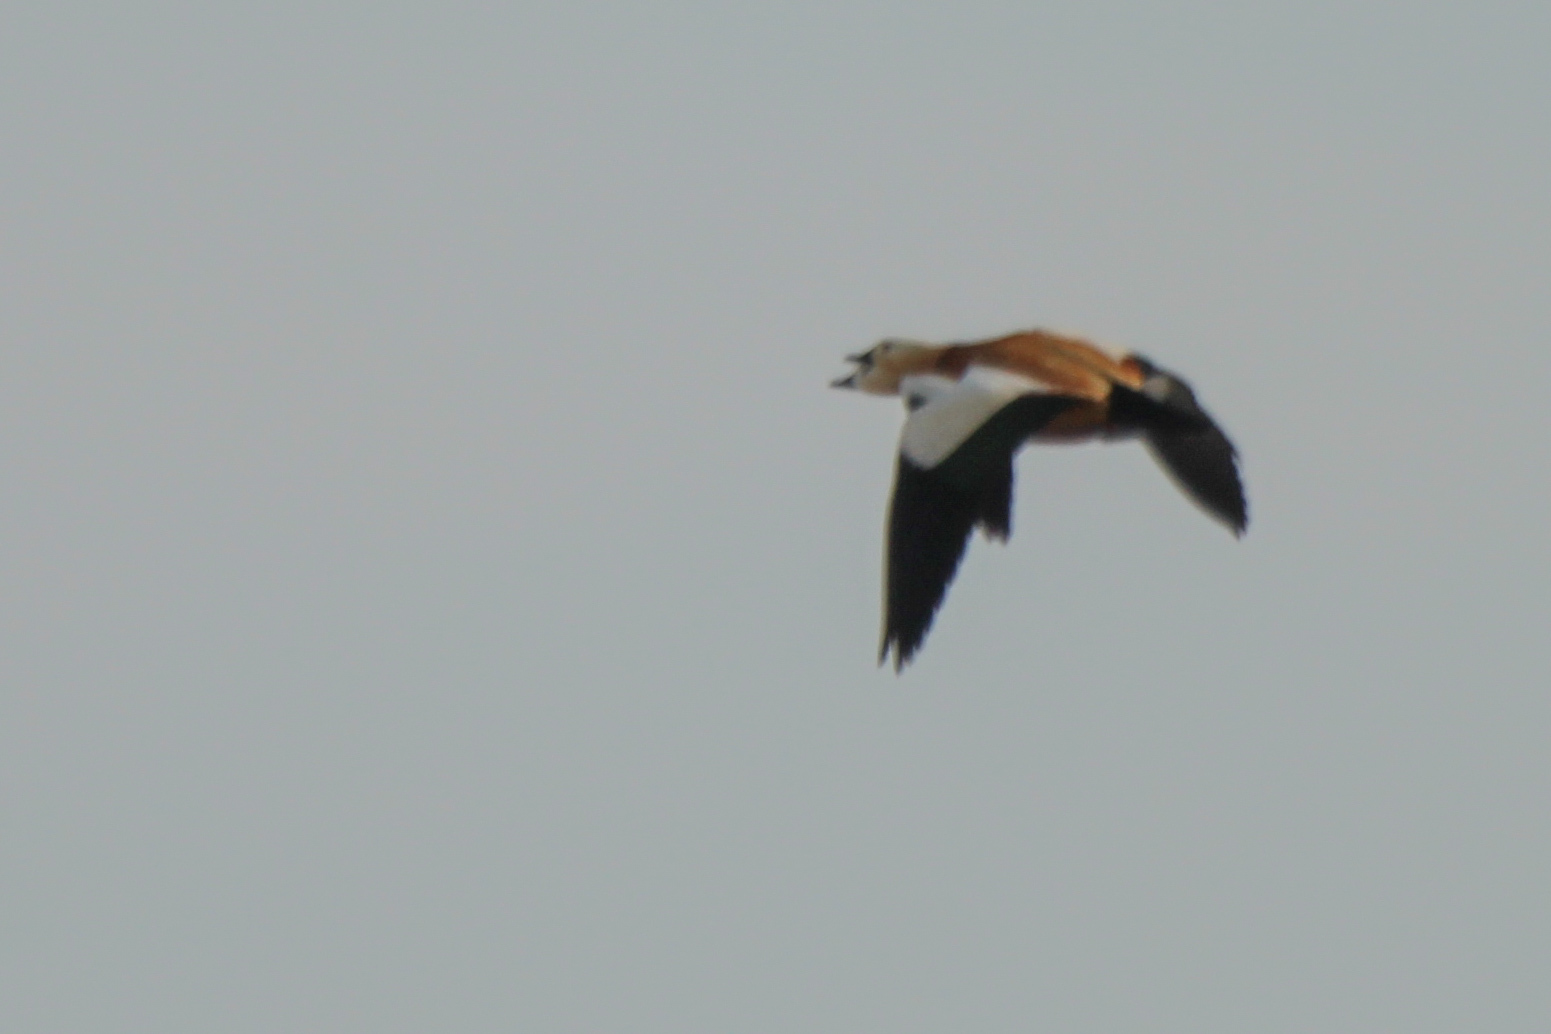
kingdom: Animalia
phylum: Chordata
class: Aves
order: Anseriformes
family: Anatidae
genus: Tadorna
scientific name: Tadorna ferruginea
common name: Ruddy shelduck
